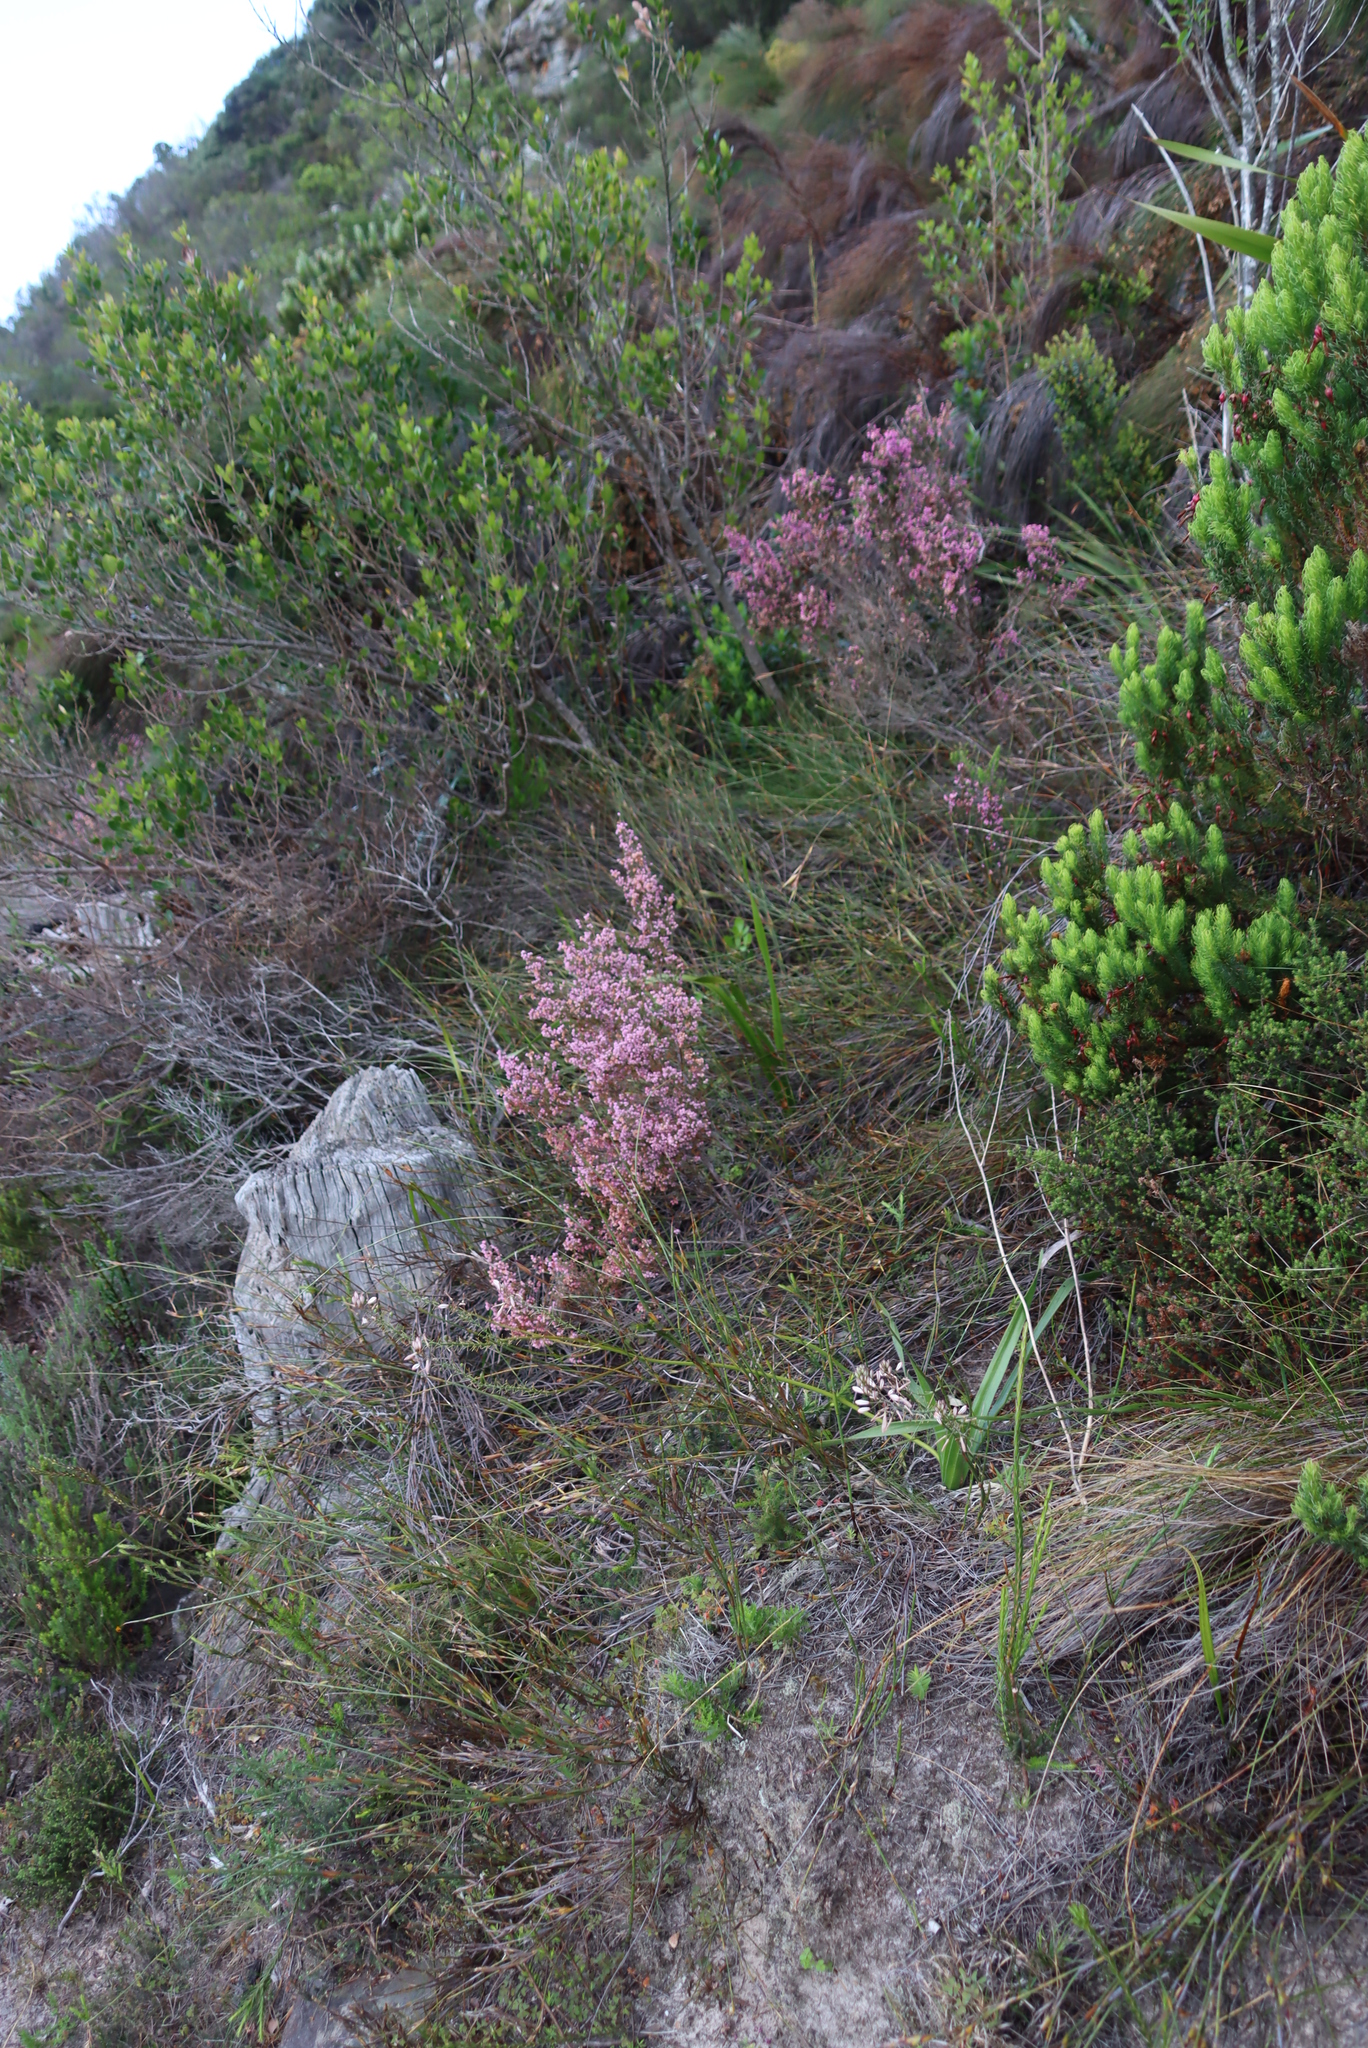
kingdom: Plantae
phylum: Tracheophyta
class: Magnoliopsida
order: Ericales
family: Ericaceae
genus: Erica
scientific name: Erica hirtiflora
